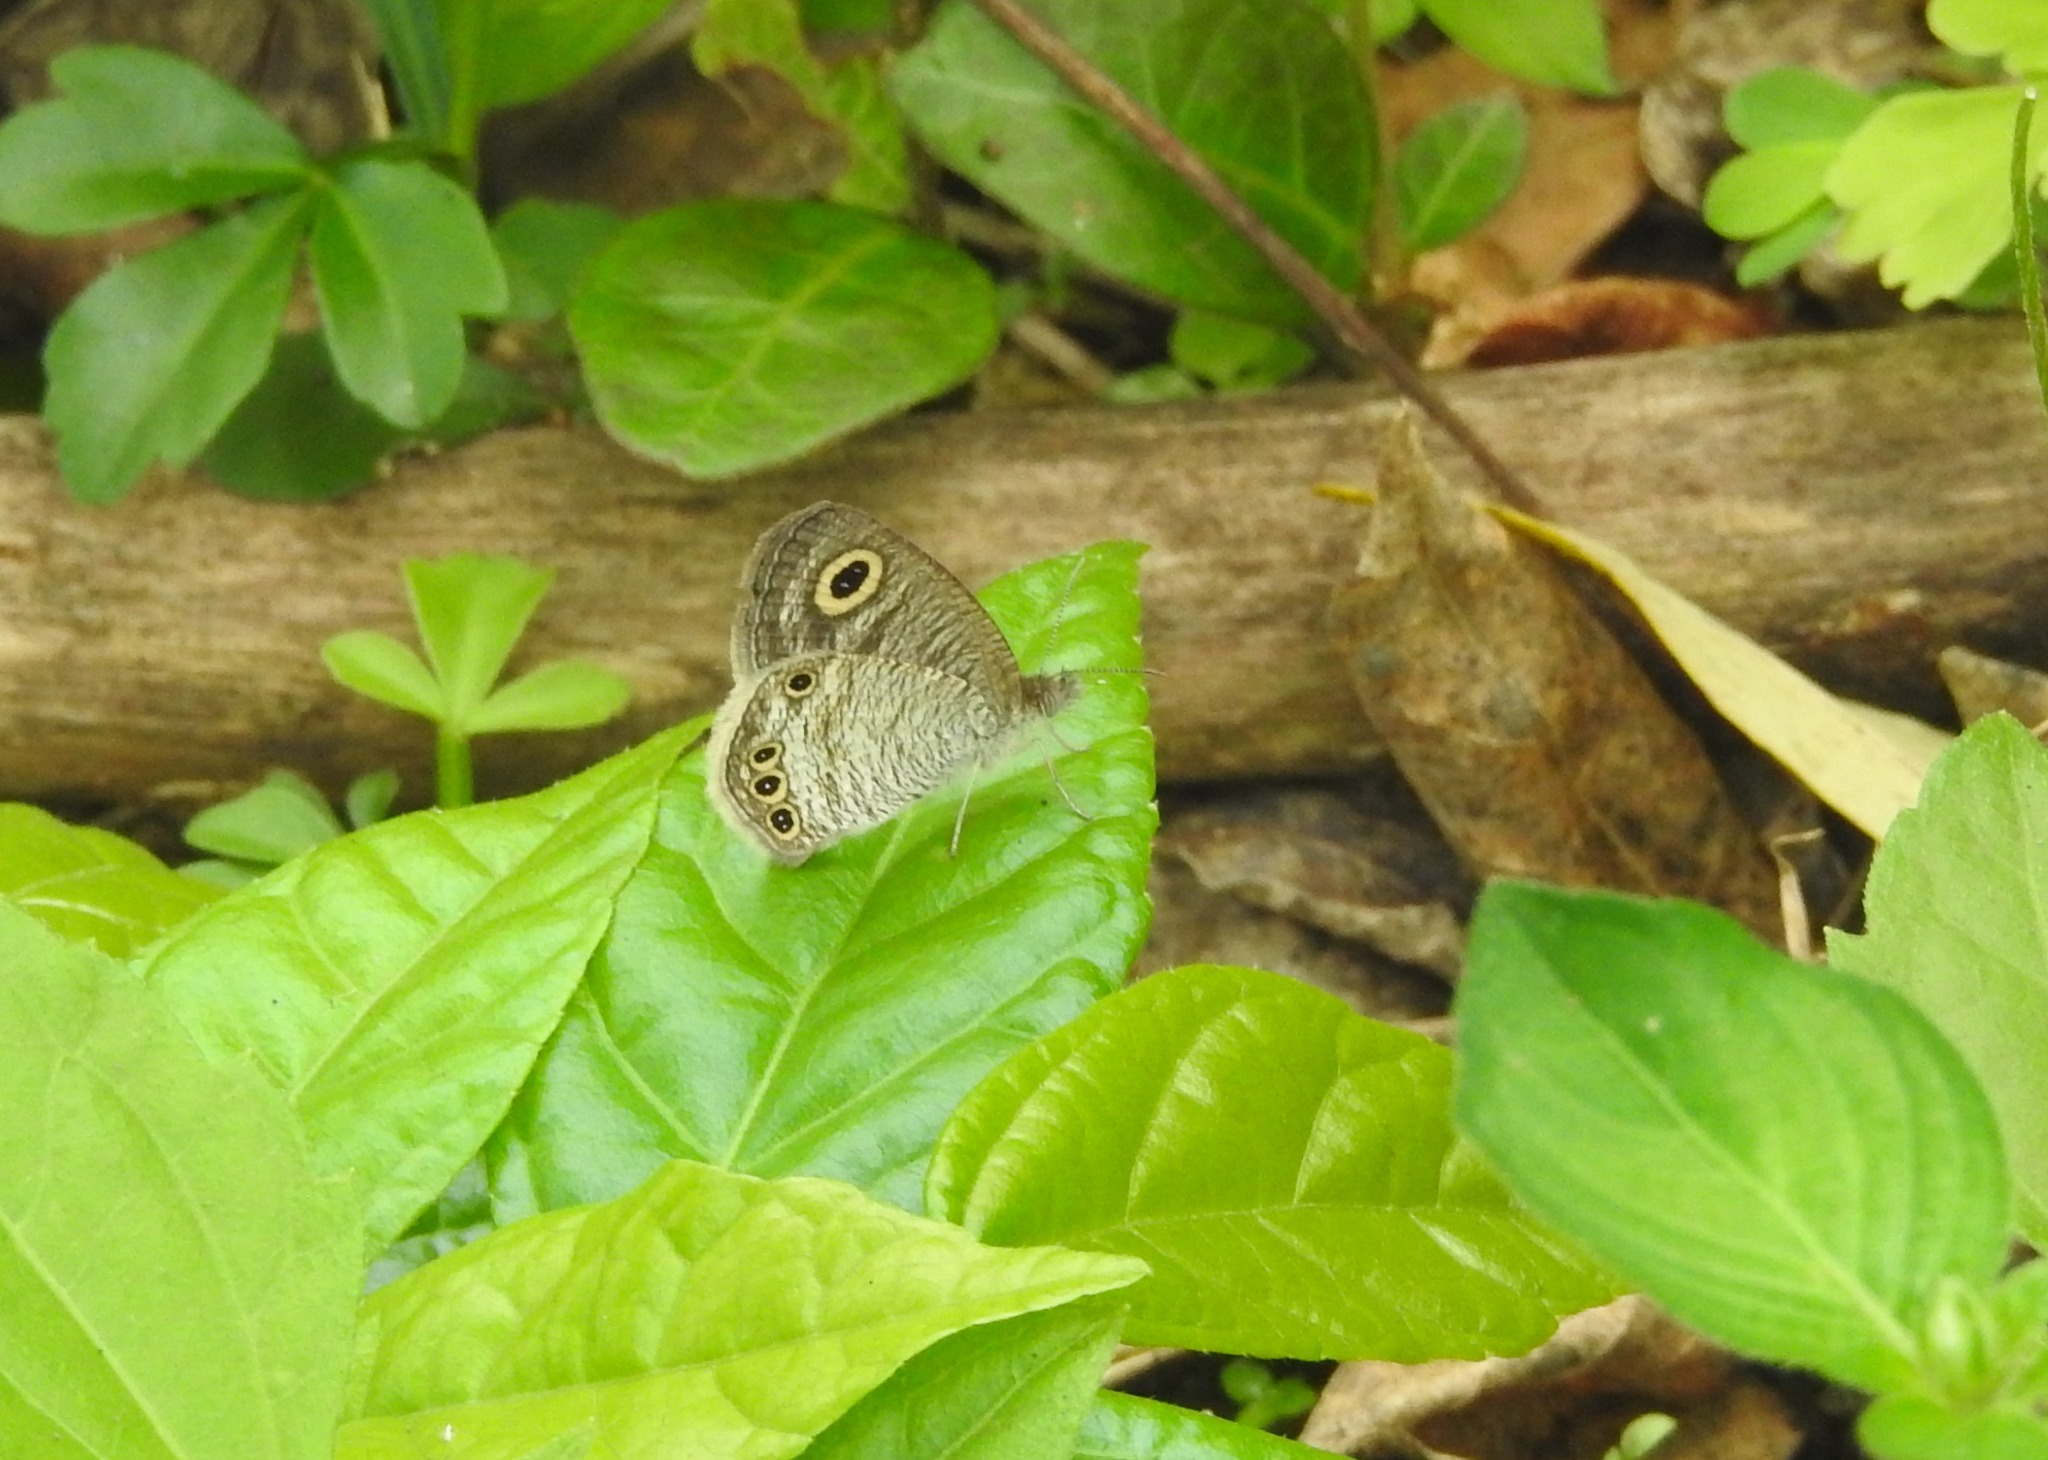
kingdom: Animalia
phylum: Arthropoda
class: Insecta
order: Lepidoptera
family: Nymphalidae
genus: Ypthima
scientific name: Ypthima huebneri
